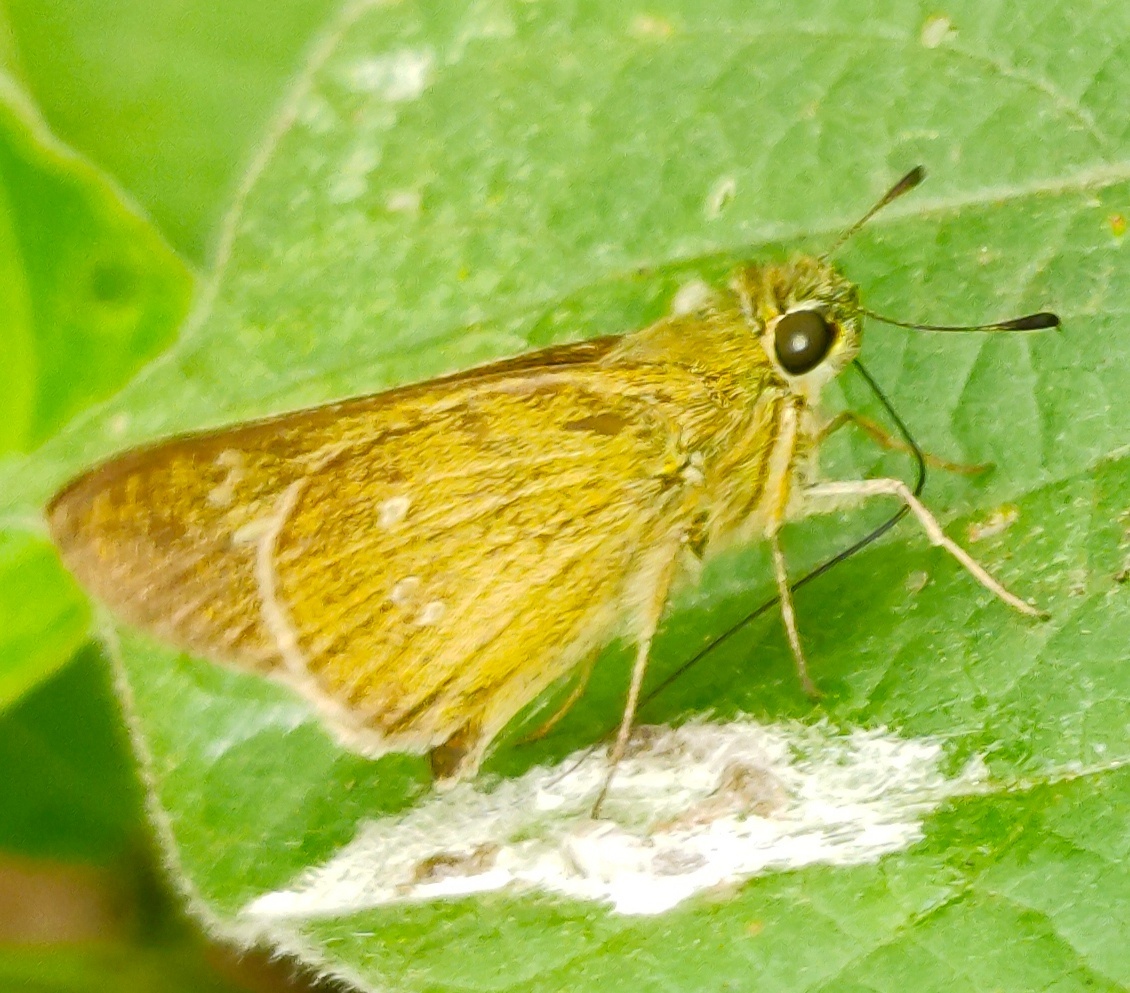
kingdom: Animalia
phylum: Arthropoda
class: Insecta
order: Lepidoptera
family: Hesperiidae
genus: Borbo
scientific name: Borbo cinnara
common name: Formosan swift
